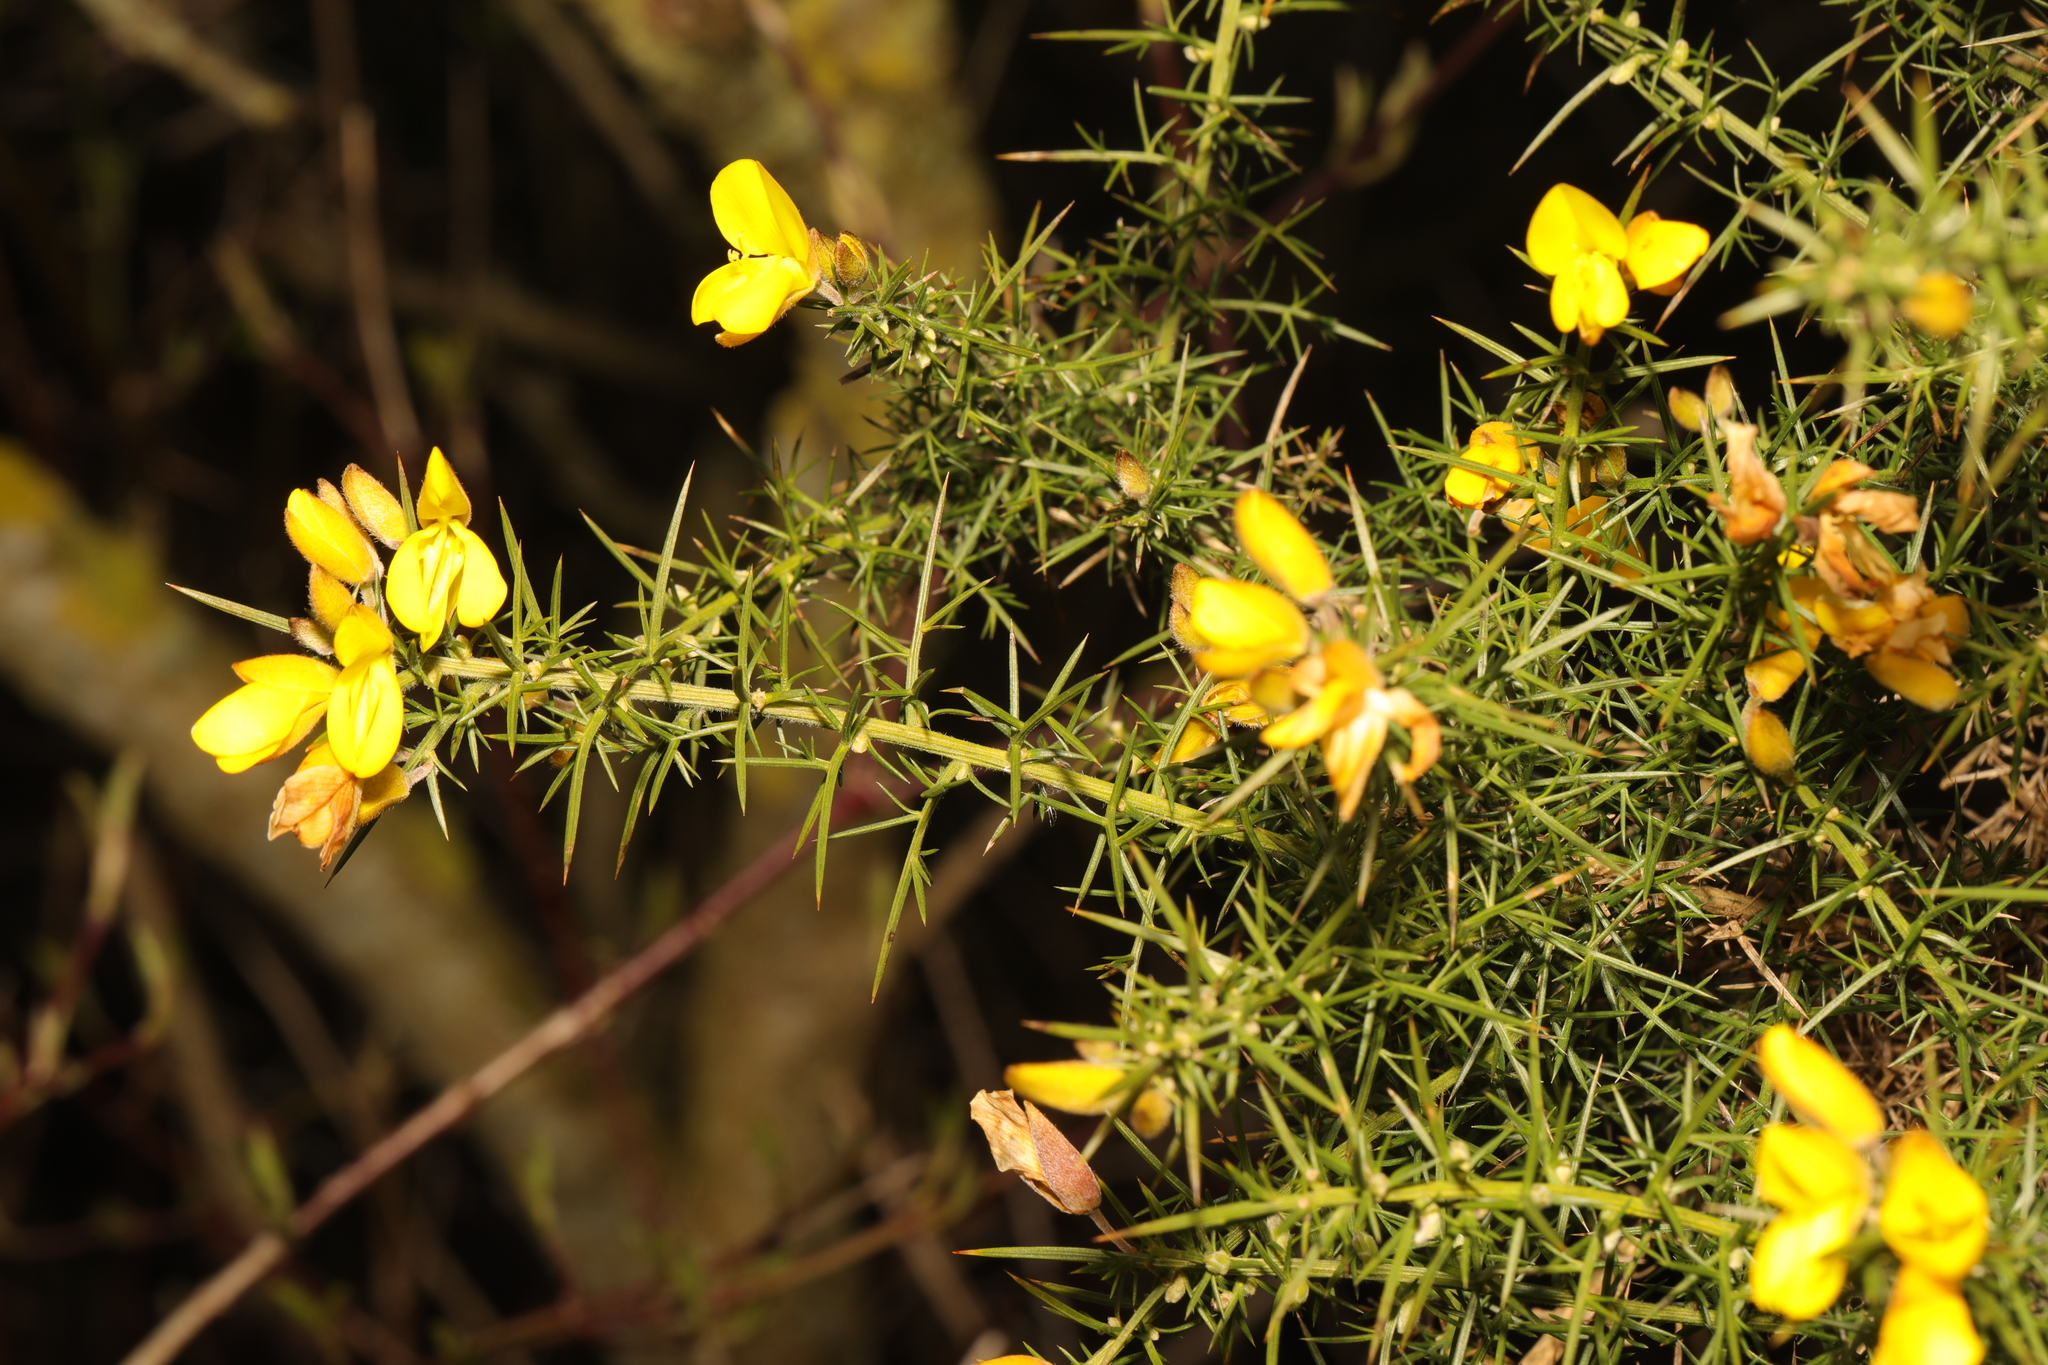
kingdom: Plantae
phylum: Tracheophyta
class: Magnoliopsida
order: Fabales
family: Fabaceae
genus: Ulex
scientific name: Ulex europaeus
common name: Common gorse
